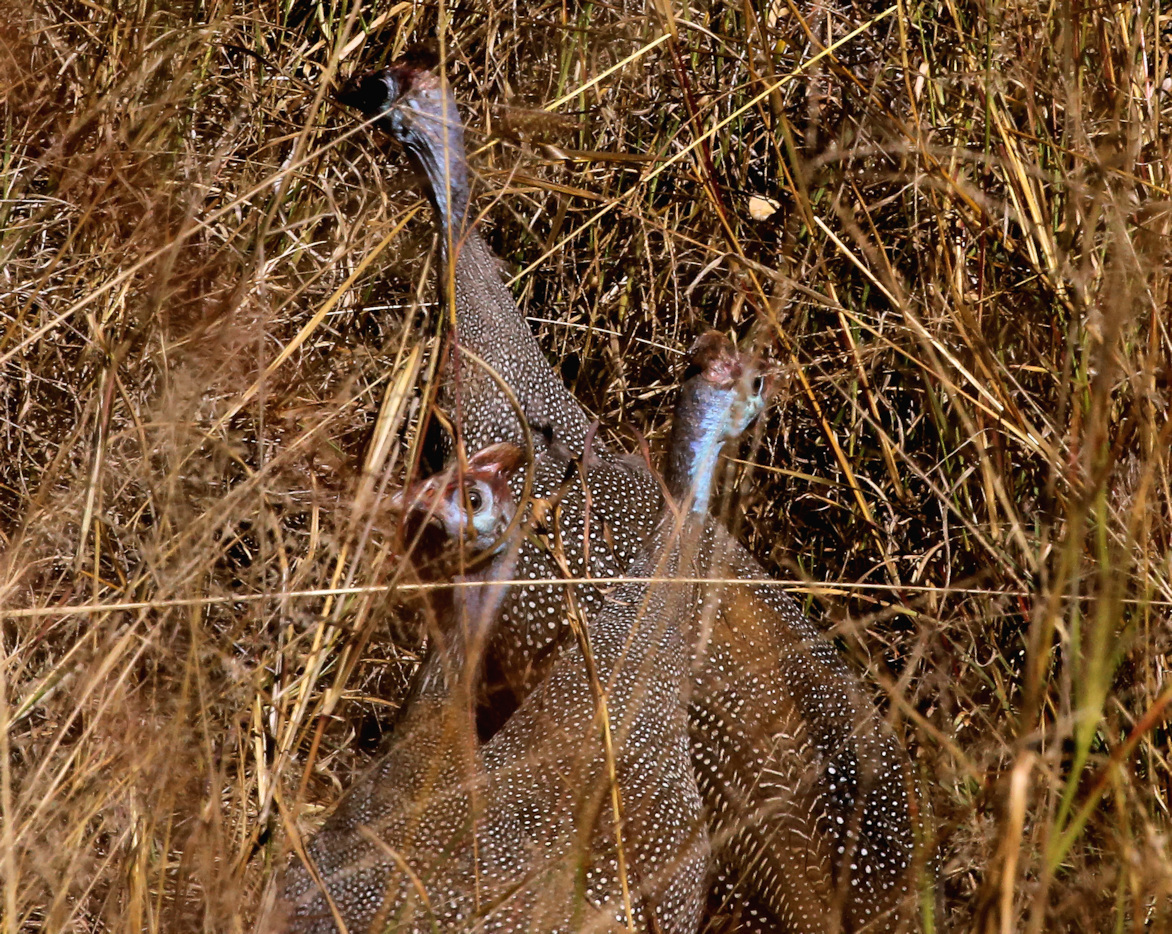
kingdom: Animalia
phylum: Chordata
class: Aves
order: Galliformes
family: Numididae
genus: Numida
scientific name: Numida meleagris
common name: Helmeted guineafowl
